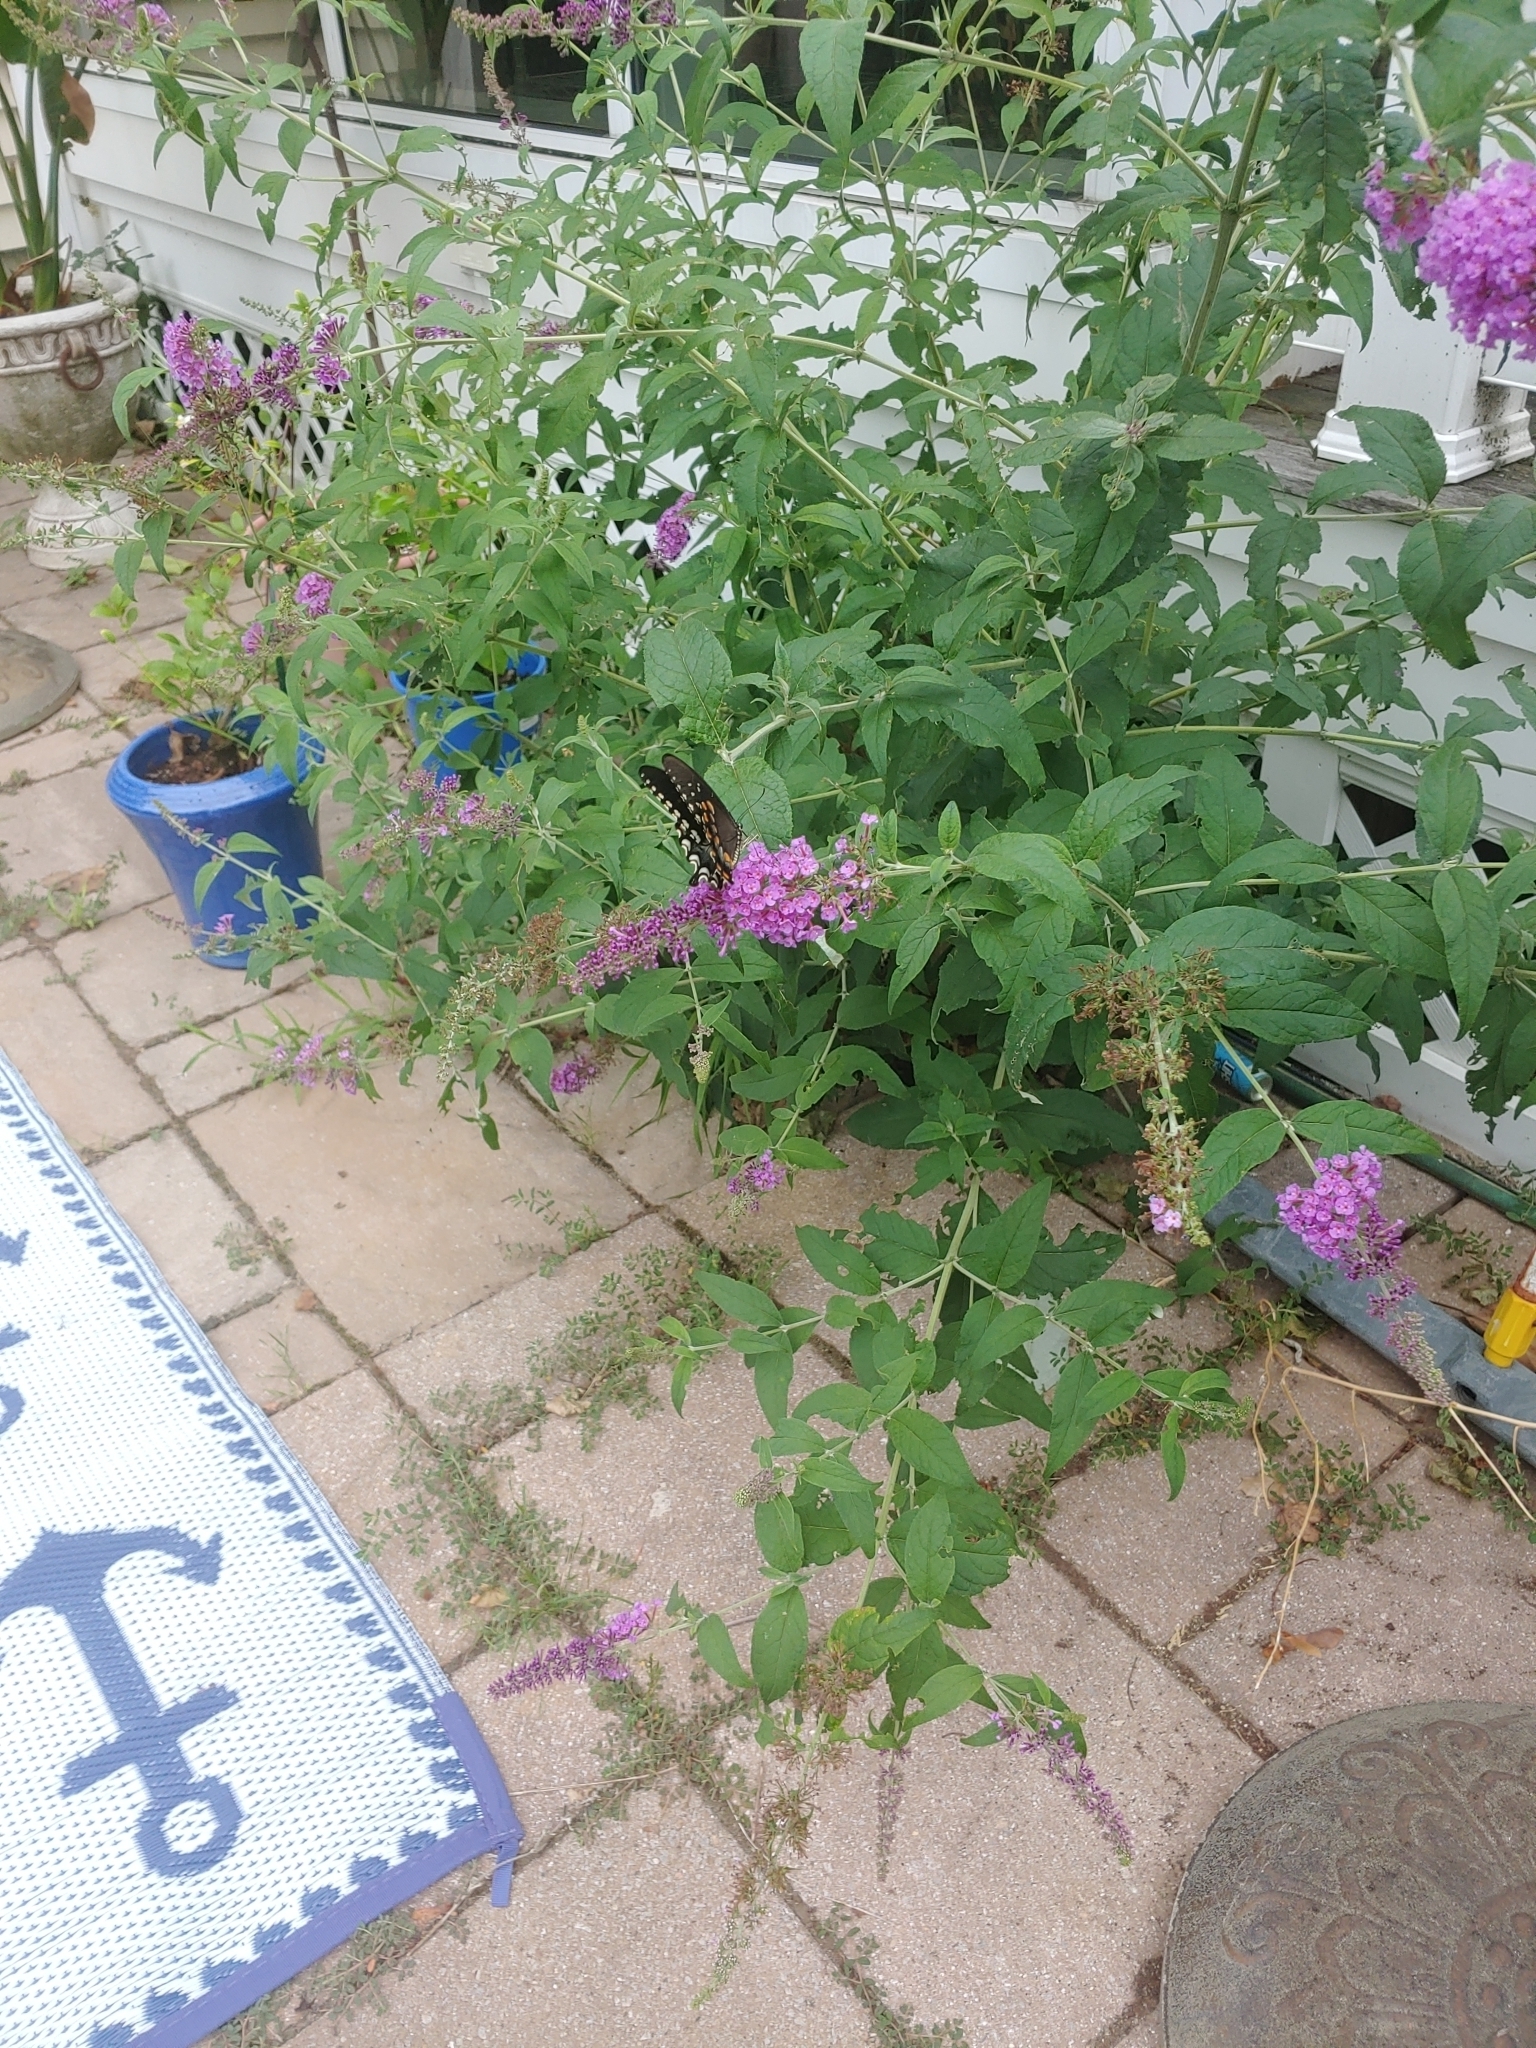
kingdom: Animalia
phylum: Arthropoda
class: Insecta
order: Lepidoptera
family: Papilionidae
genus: Papilio
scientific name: Papilio troilus
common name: Spicebush swallowtail
